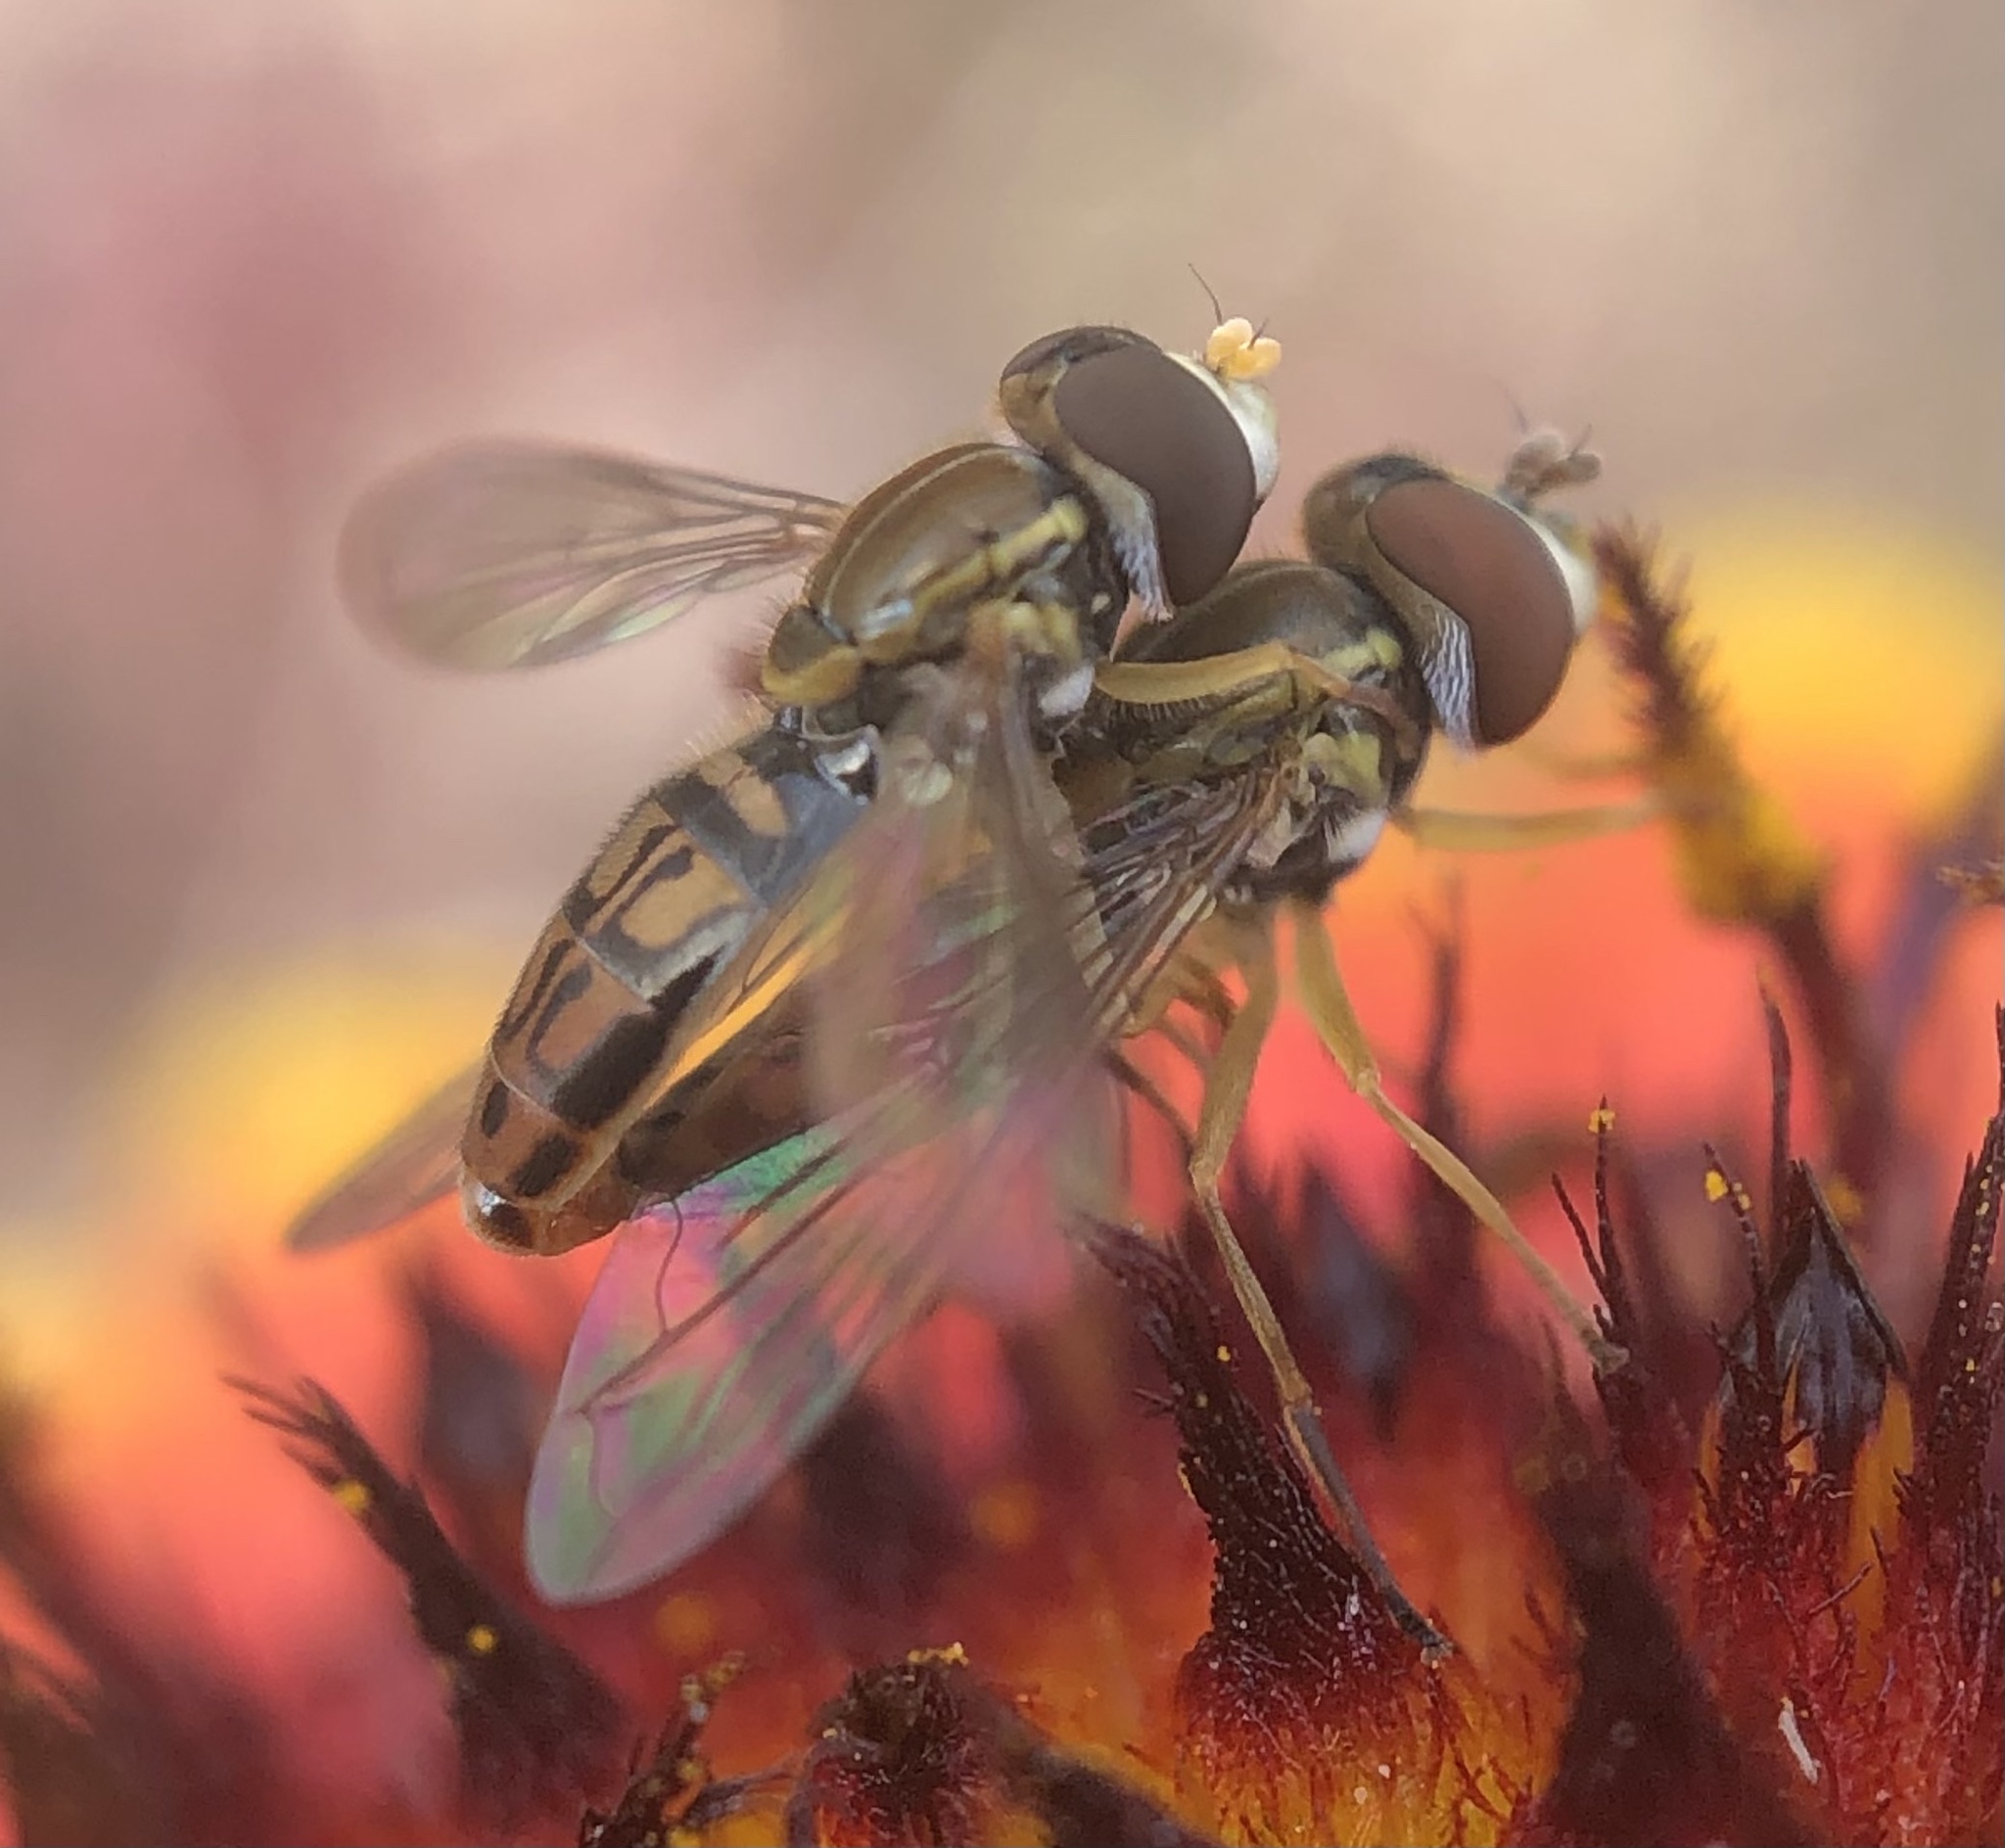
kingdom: Animalia
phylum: Arthropoda
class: Insecta
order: Diptera
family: Syrphidae
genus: Toxomerus
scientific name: Toxomerus marginatus
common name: Syrphid fly
